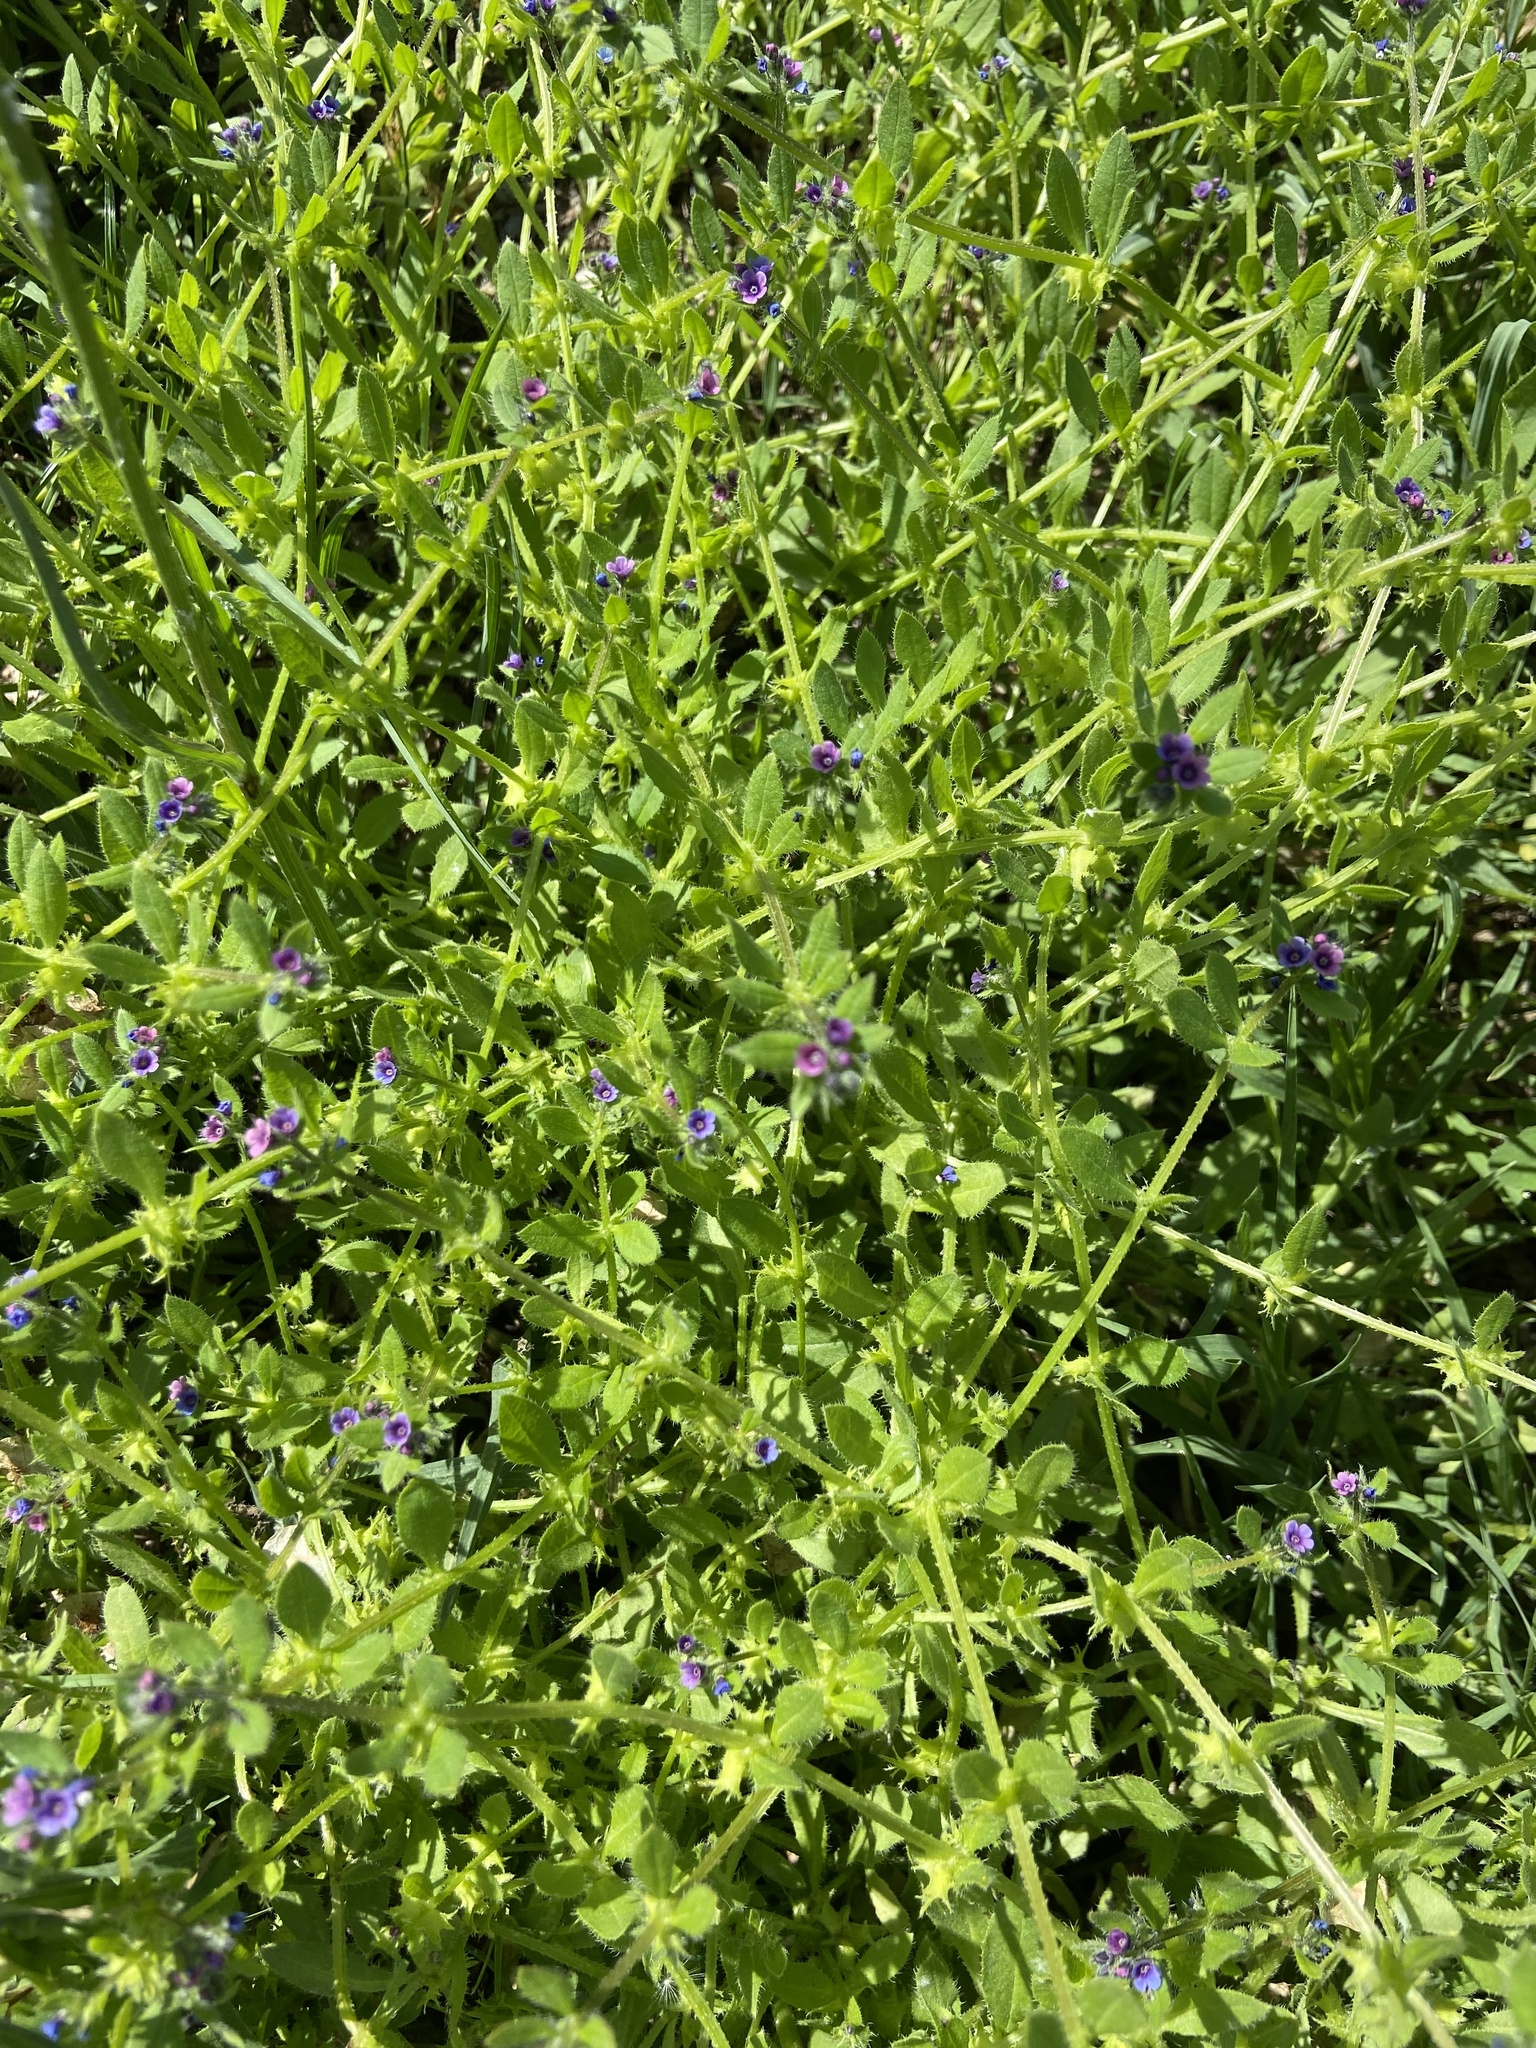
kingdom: Plantae
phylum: Tracheophyta
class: Magnoliopsida
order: Boraginales
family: Boraginaceae
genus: Asperugo
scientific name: Asperugo procumbens
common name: Madwort
